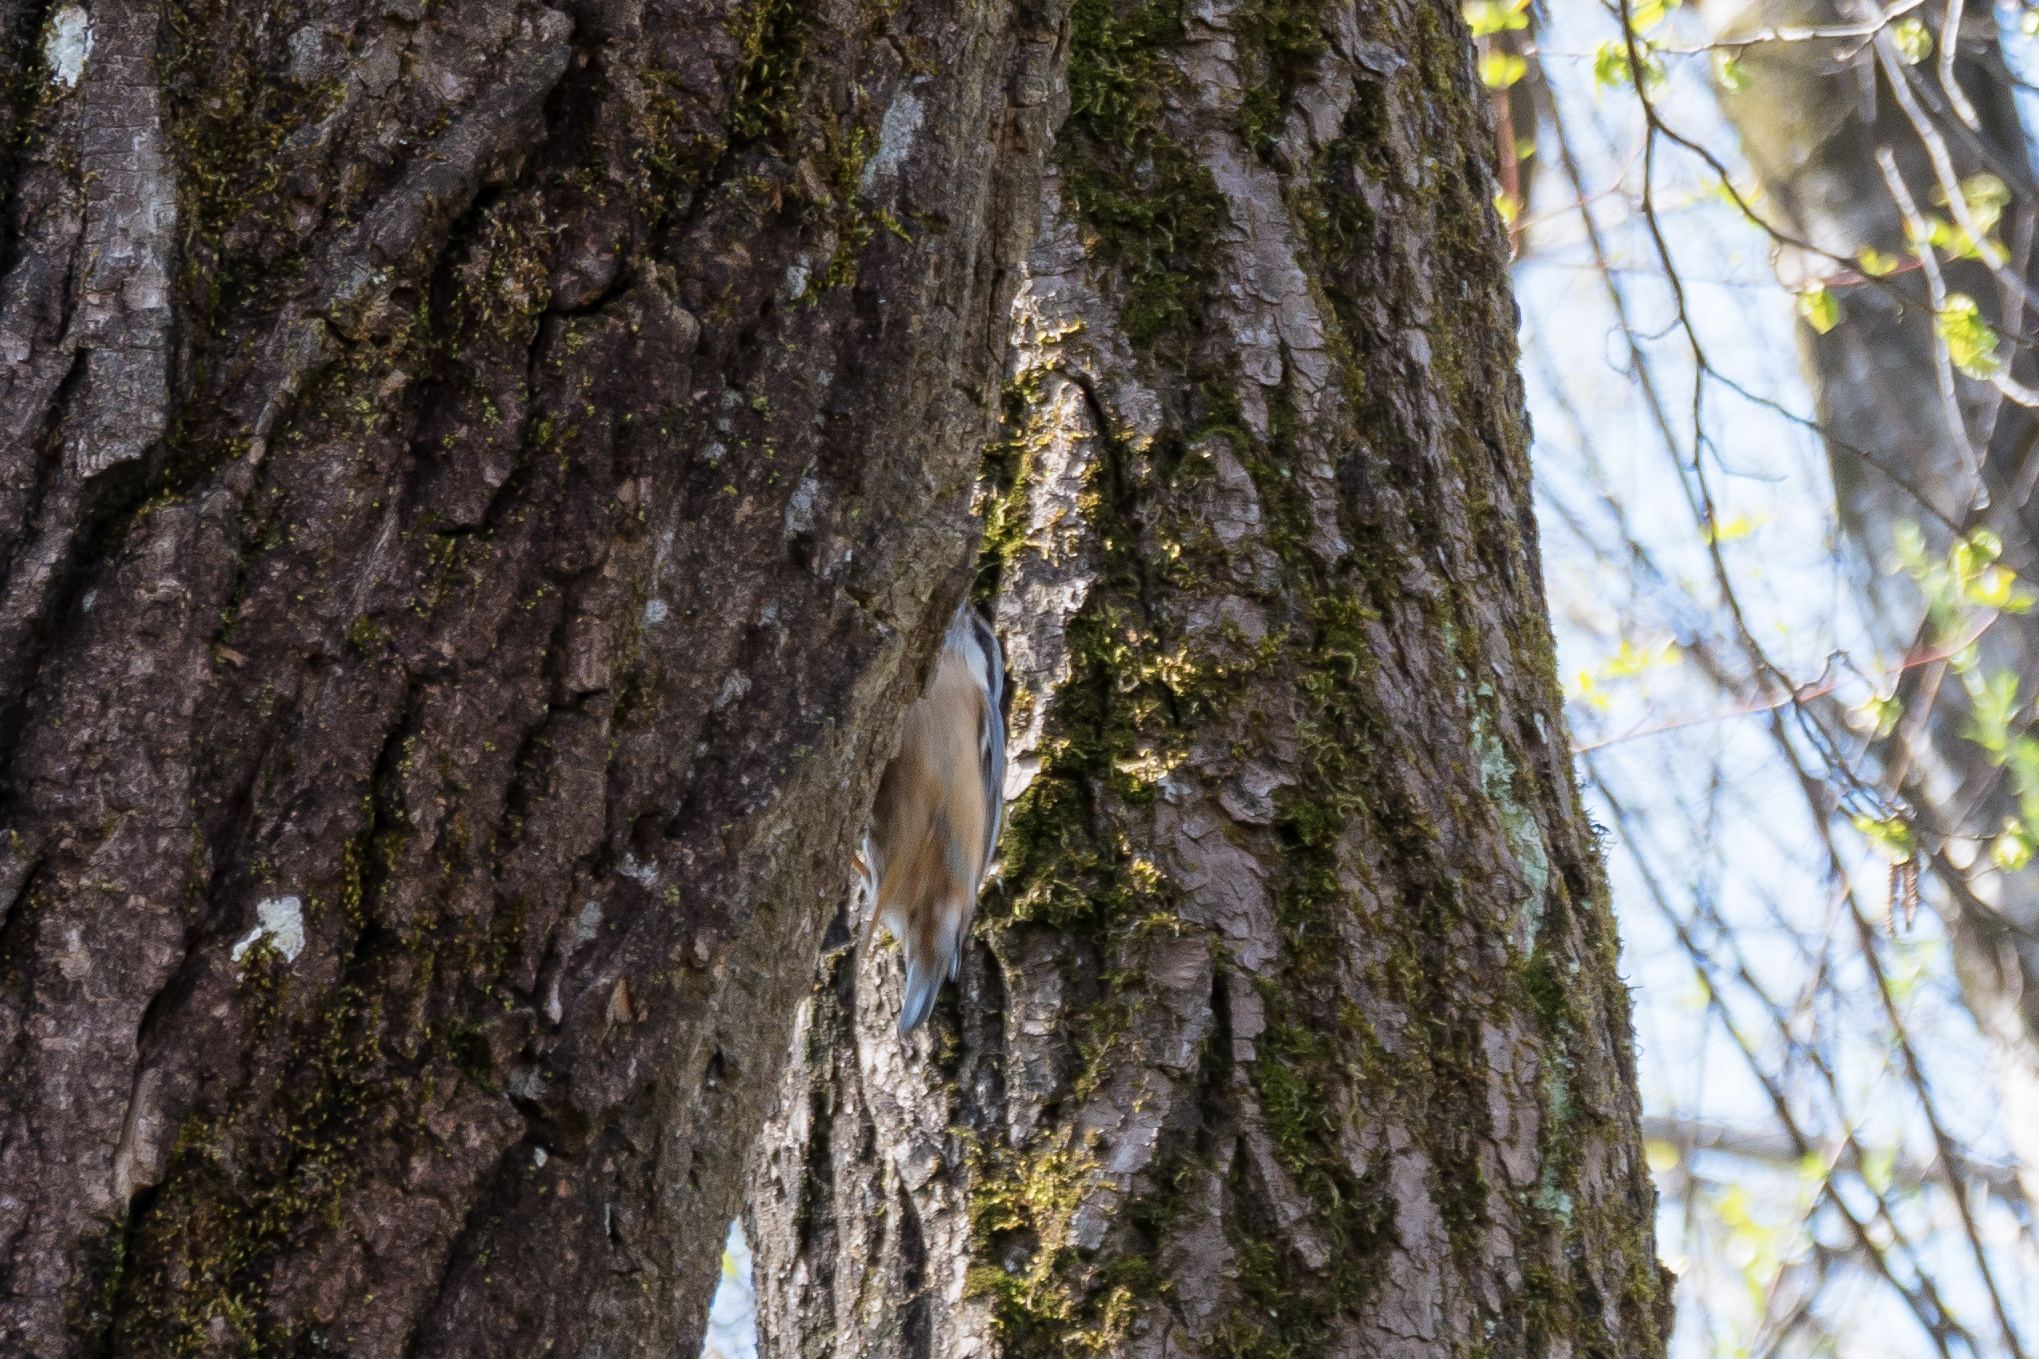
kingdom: Animalia
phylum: Chordata
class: Aves
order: Passeriformes
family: Sittidae
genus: Sitta
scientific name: Sitta europaea
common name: Eurasian nuthatch
